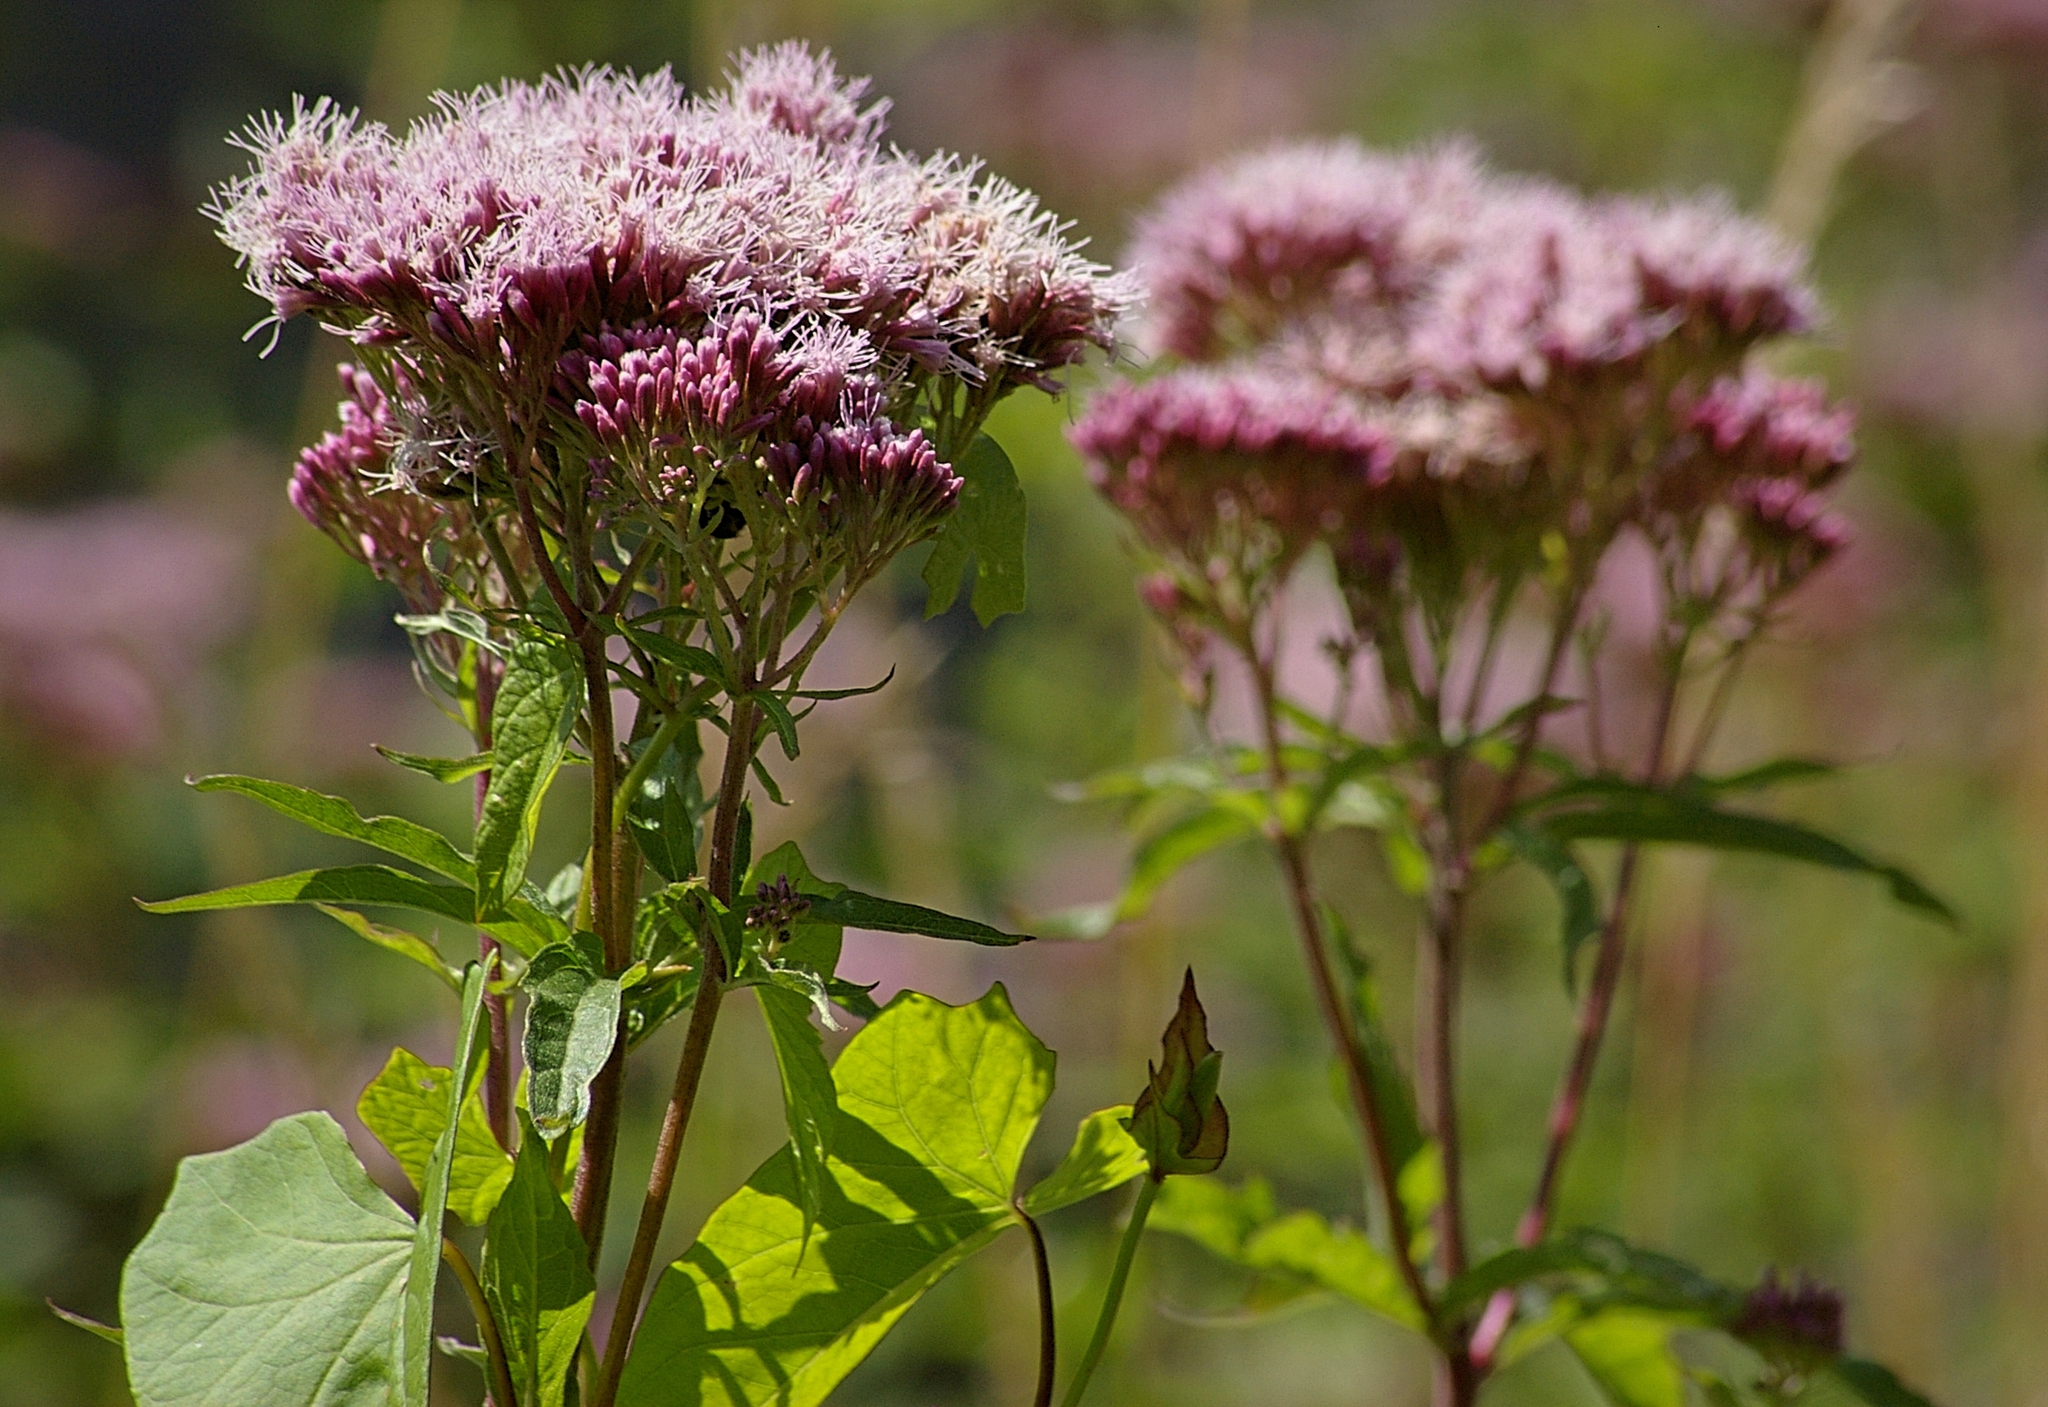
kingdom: Plantae
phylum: Tracheophyta
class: Magnoliopsida
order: Asterales
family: Asteraceae
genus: Eupatorium
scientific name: Eupatorium cannabinum
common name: Hemp-agrimony
